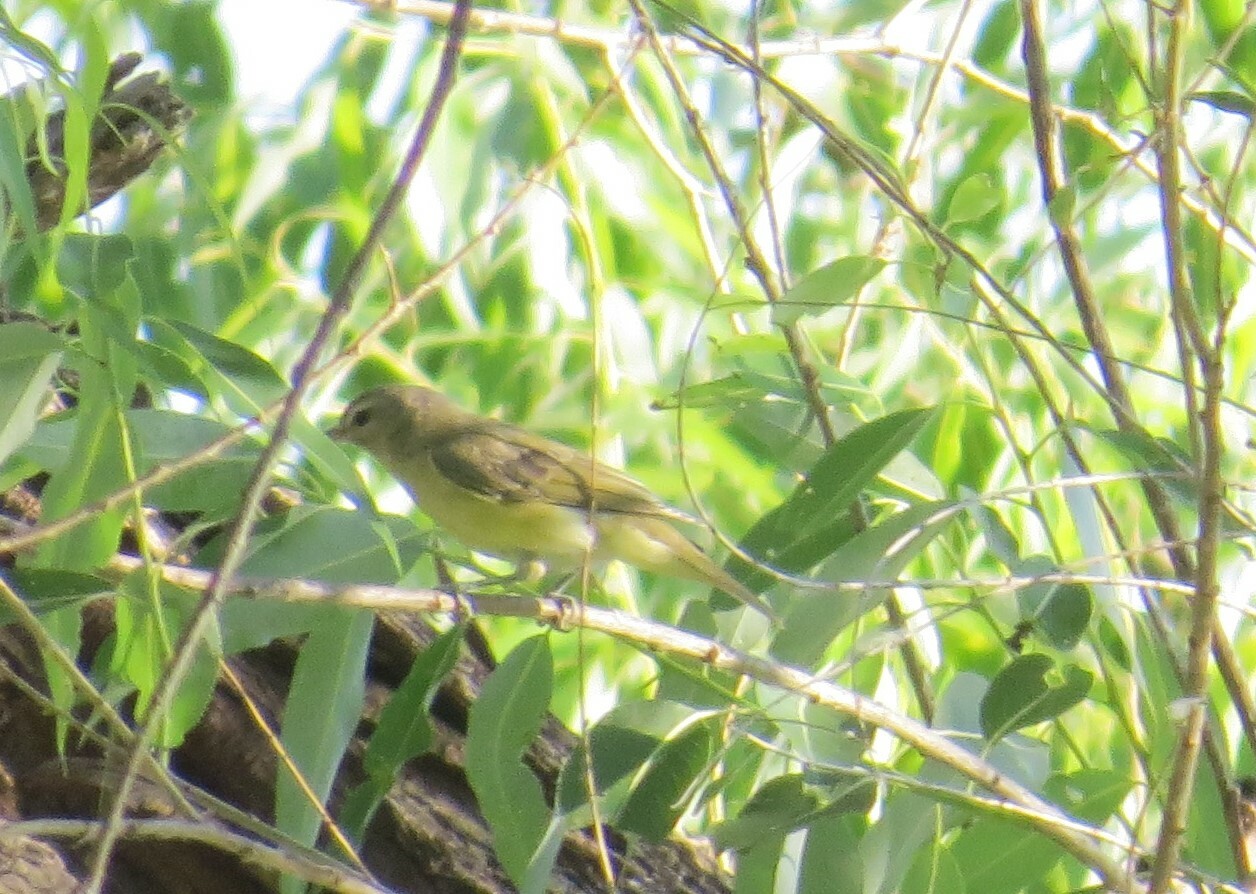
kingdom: Animalia
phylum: Chordata
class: Aves
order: Passeriformes
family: Vireonidae
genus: Vireo
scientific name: Vireo philadelphicus
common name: Philadelphia vireo
